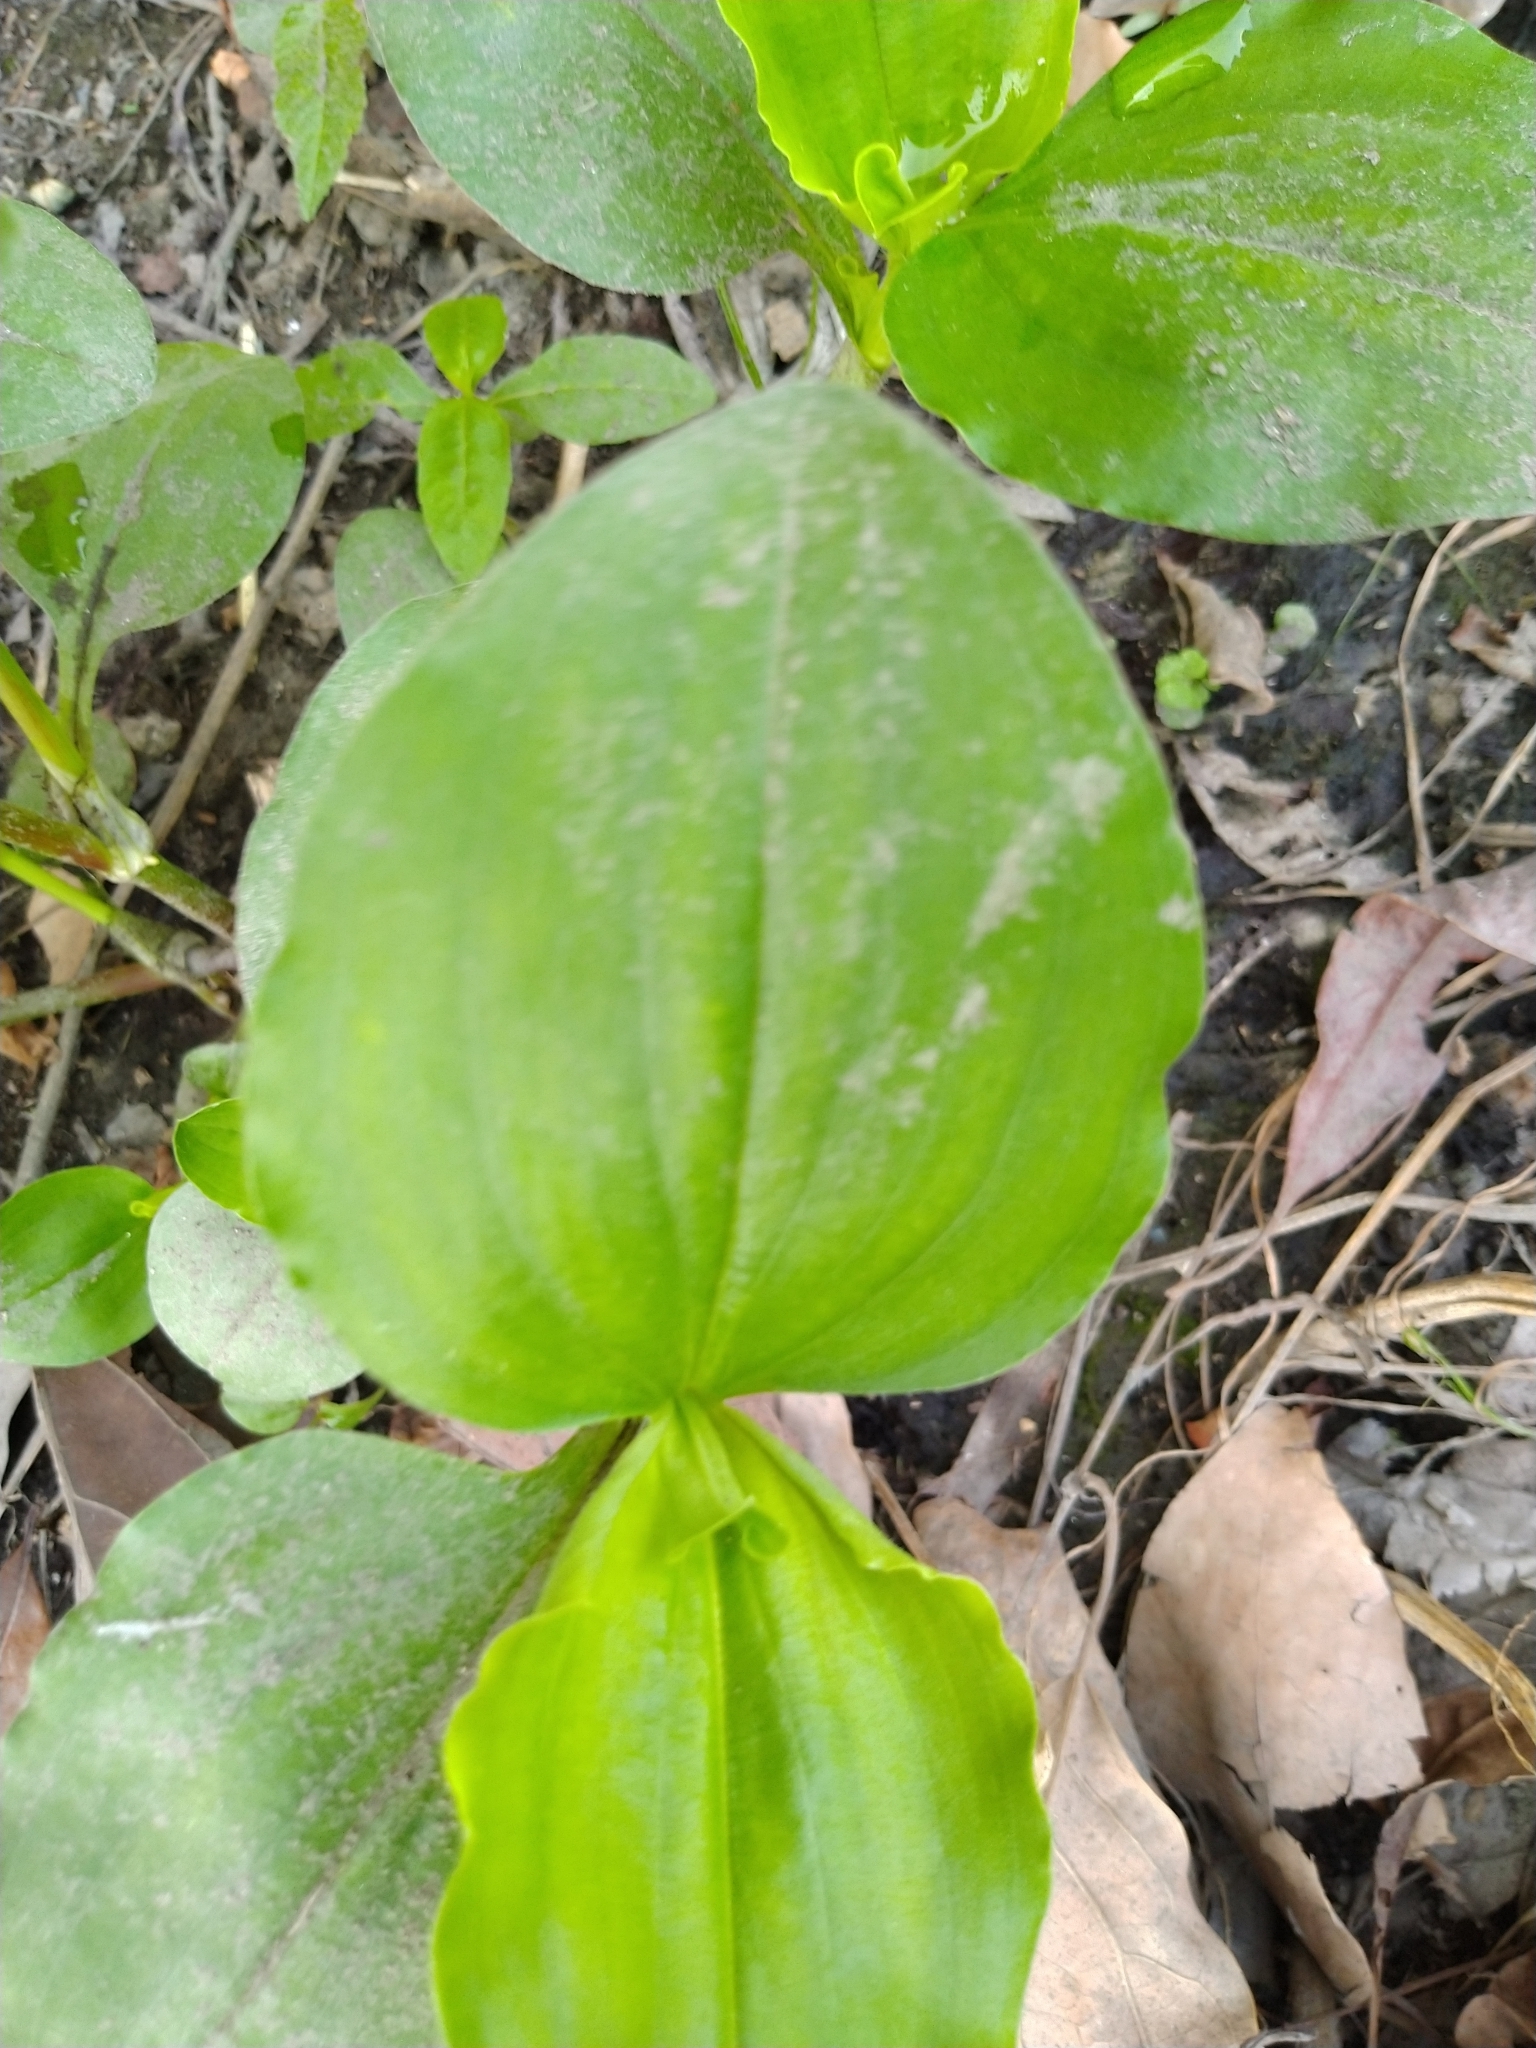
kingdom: Plantae
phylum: Tracheophyta
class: Liliopsida
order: Commelinales
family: Commelinaceae
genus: Commelina
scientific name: Commelina benghalensis
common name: Jio
